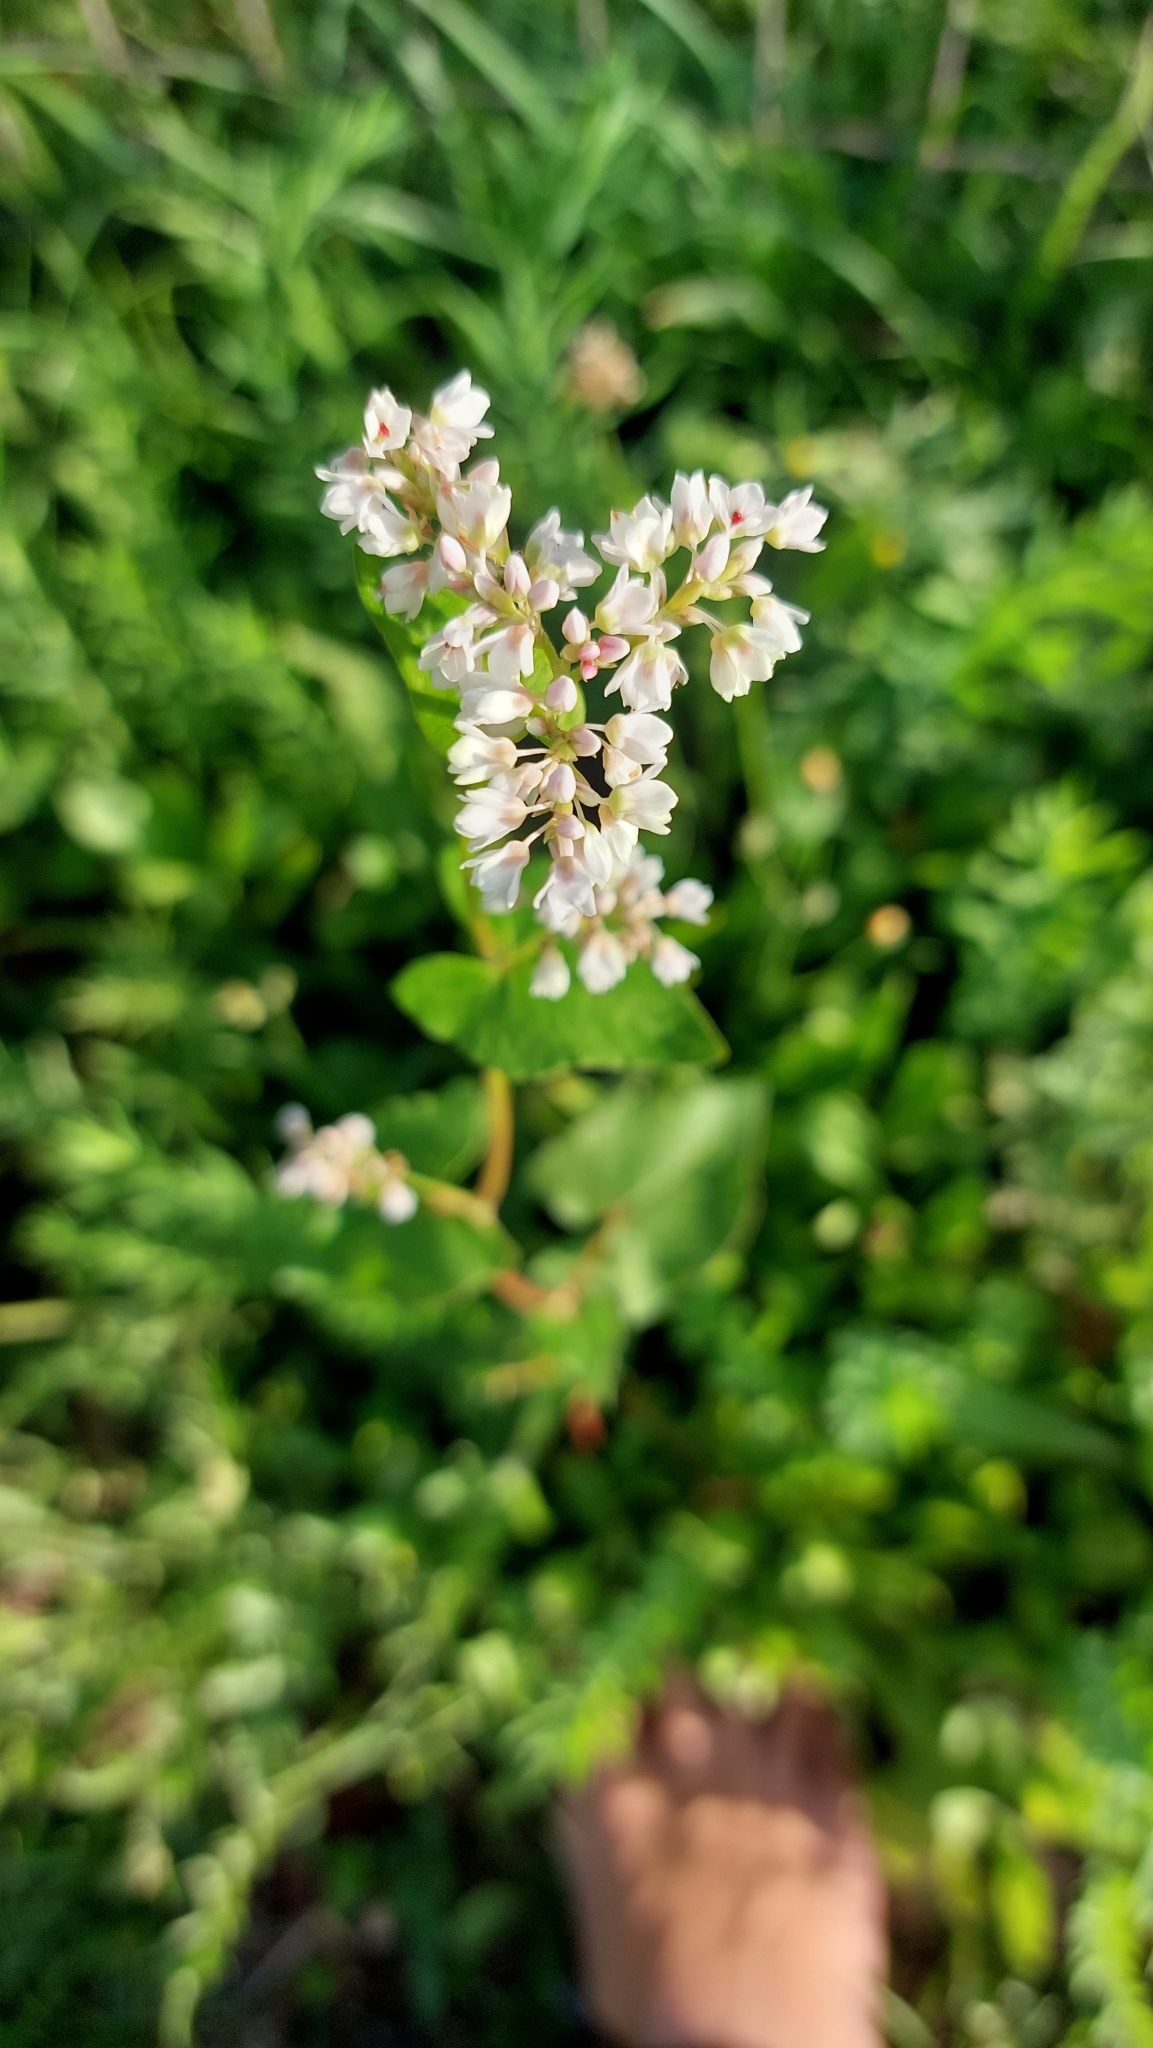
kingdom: Plantae
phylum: Tracheophyta
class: Magnoliopsida
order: Caryophyllales
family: Polygonaceae
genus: Fagopyrum
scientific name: Fagopyrum esculentum
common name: Buckwheat
